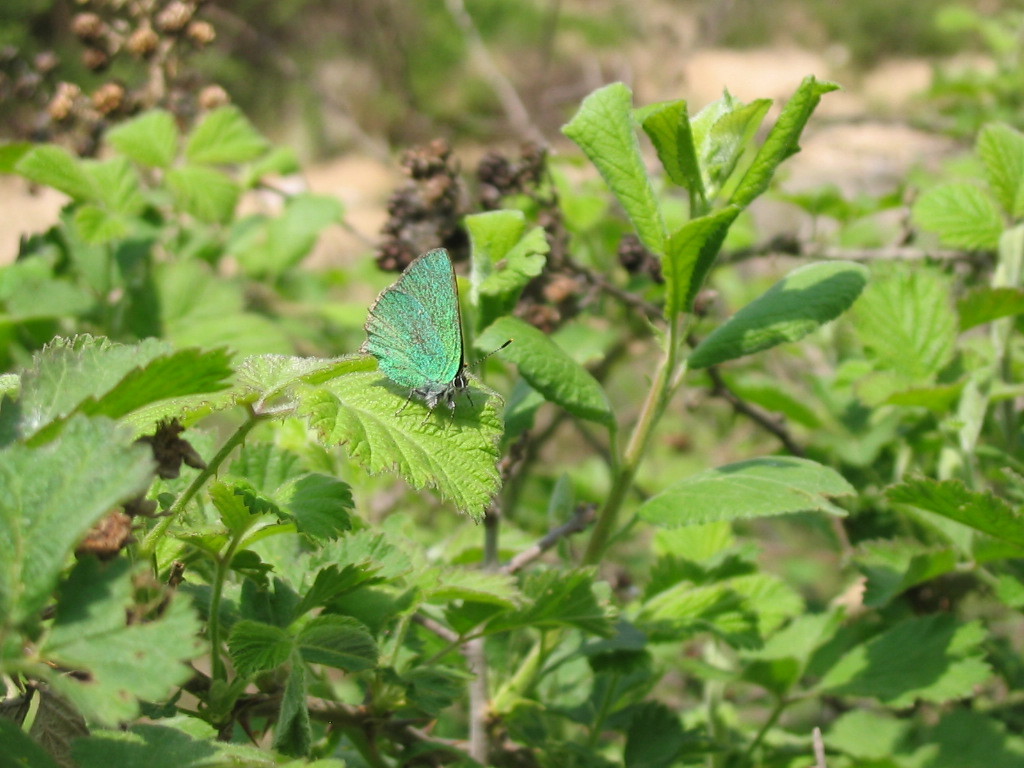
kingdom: Animalia
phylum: Arthropoda
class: Insecta
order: Lepidoptera
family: Lycaenidae
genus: Callophrys
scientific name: Callophrys rubi
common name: Green hairstreak
